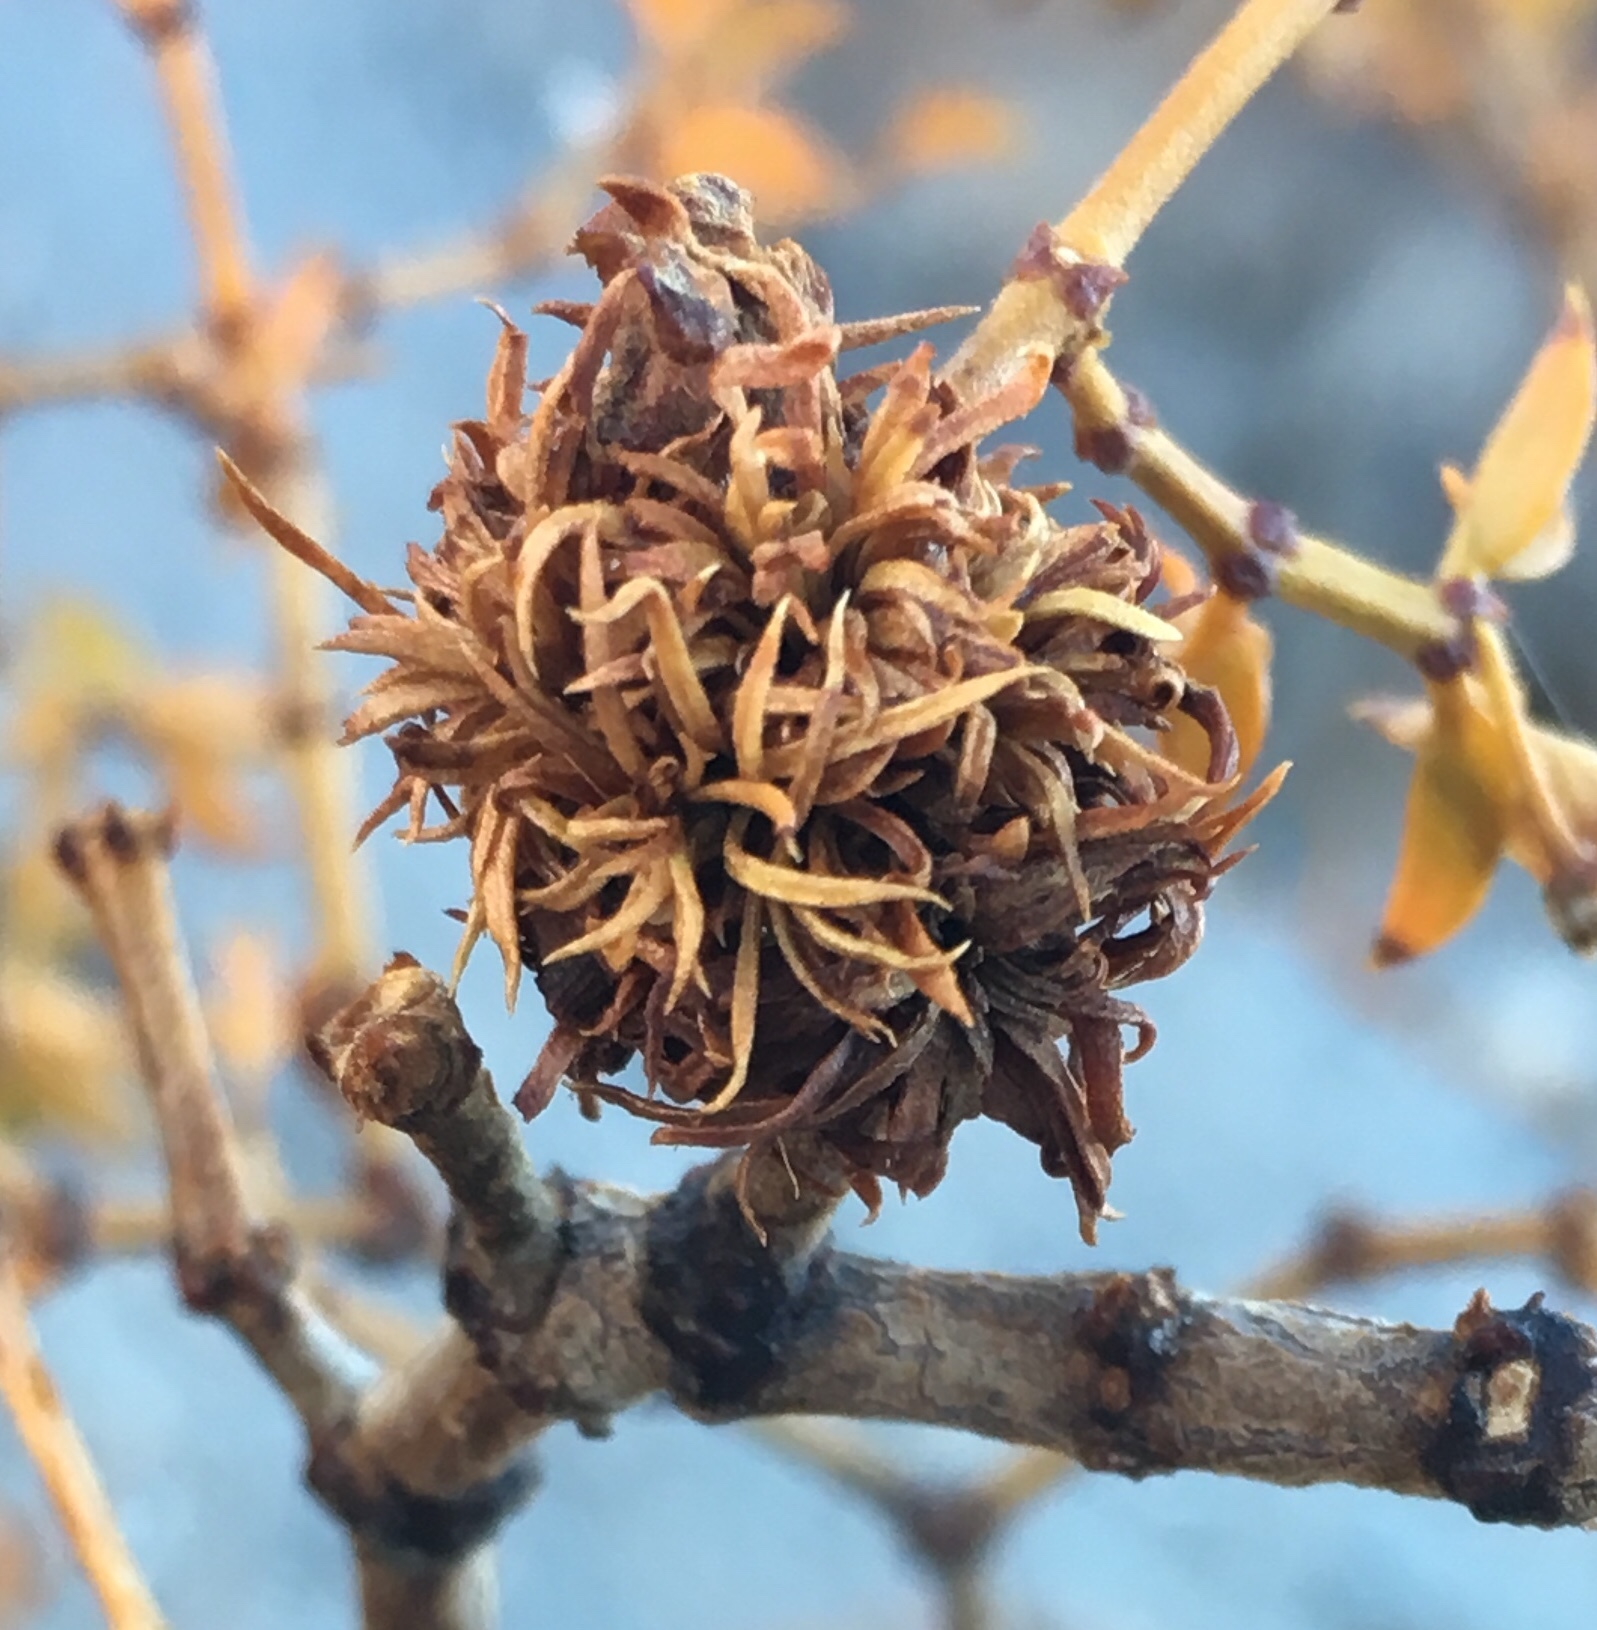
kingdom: Animalia
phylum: Arthropoda
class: Insecta
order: Diptera
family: Cecidomyiidae
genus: Asphondylia
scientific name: Asphondylia auripila
